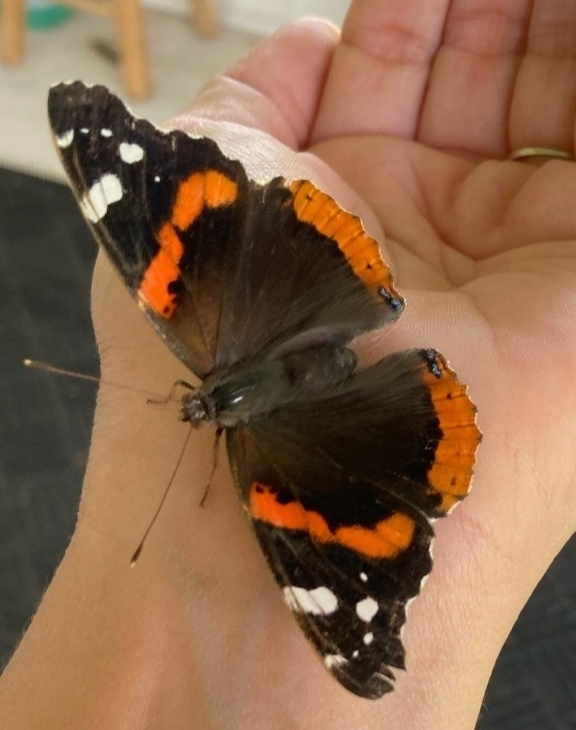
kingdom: Animalia
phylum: Arthropoda
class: Insecta
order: Lepidoptera
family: Nymphalidae
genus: Vanessa
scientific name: Vanessa atalanta
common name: Red admiral
